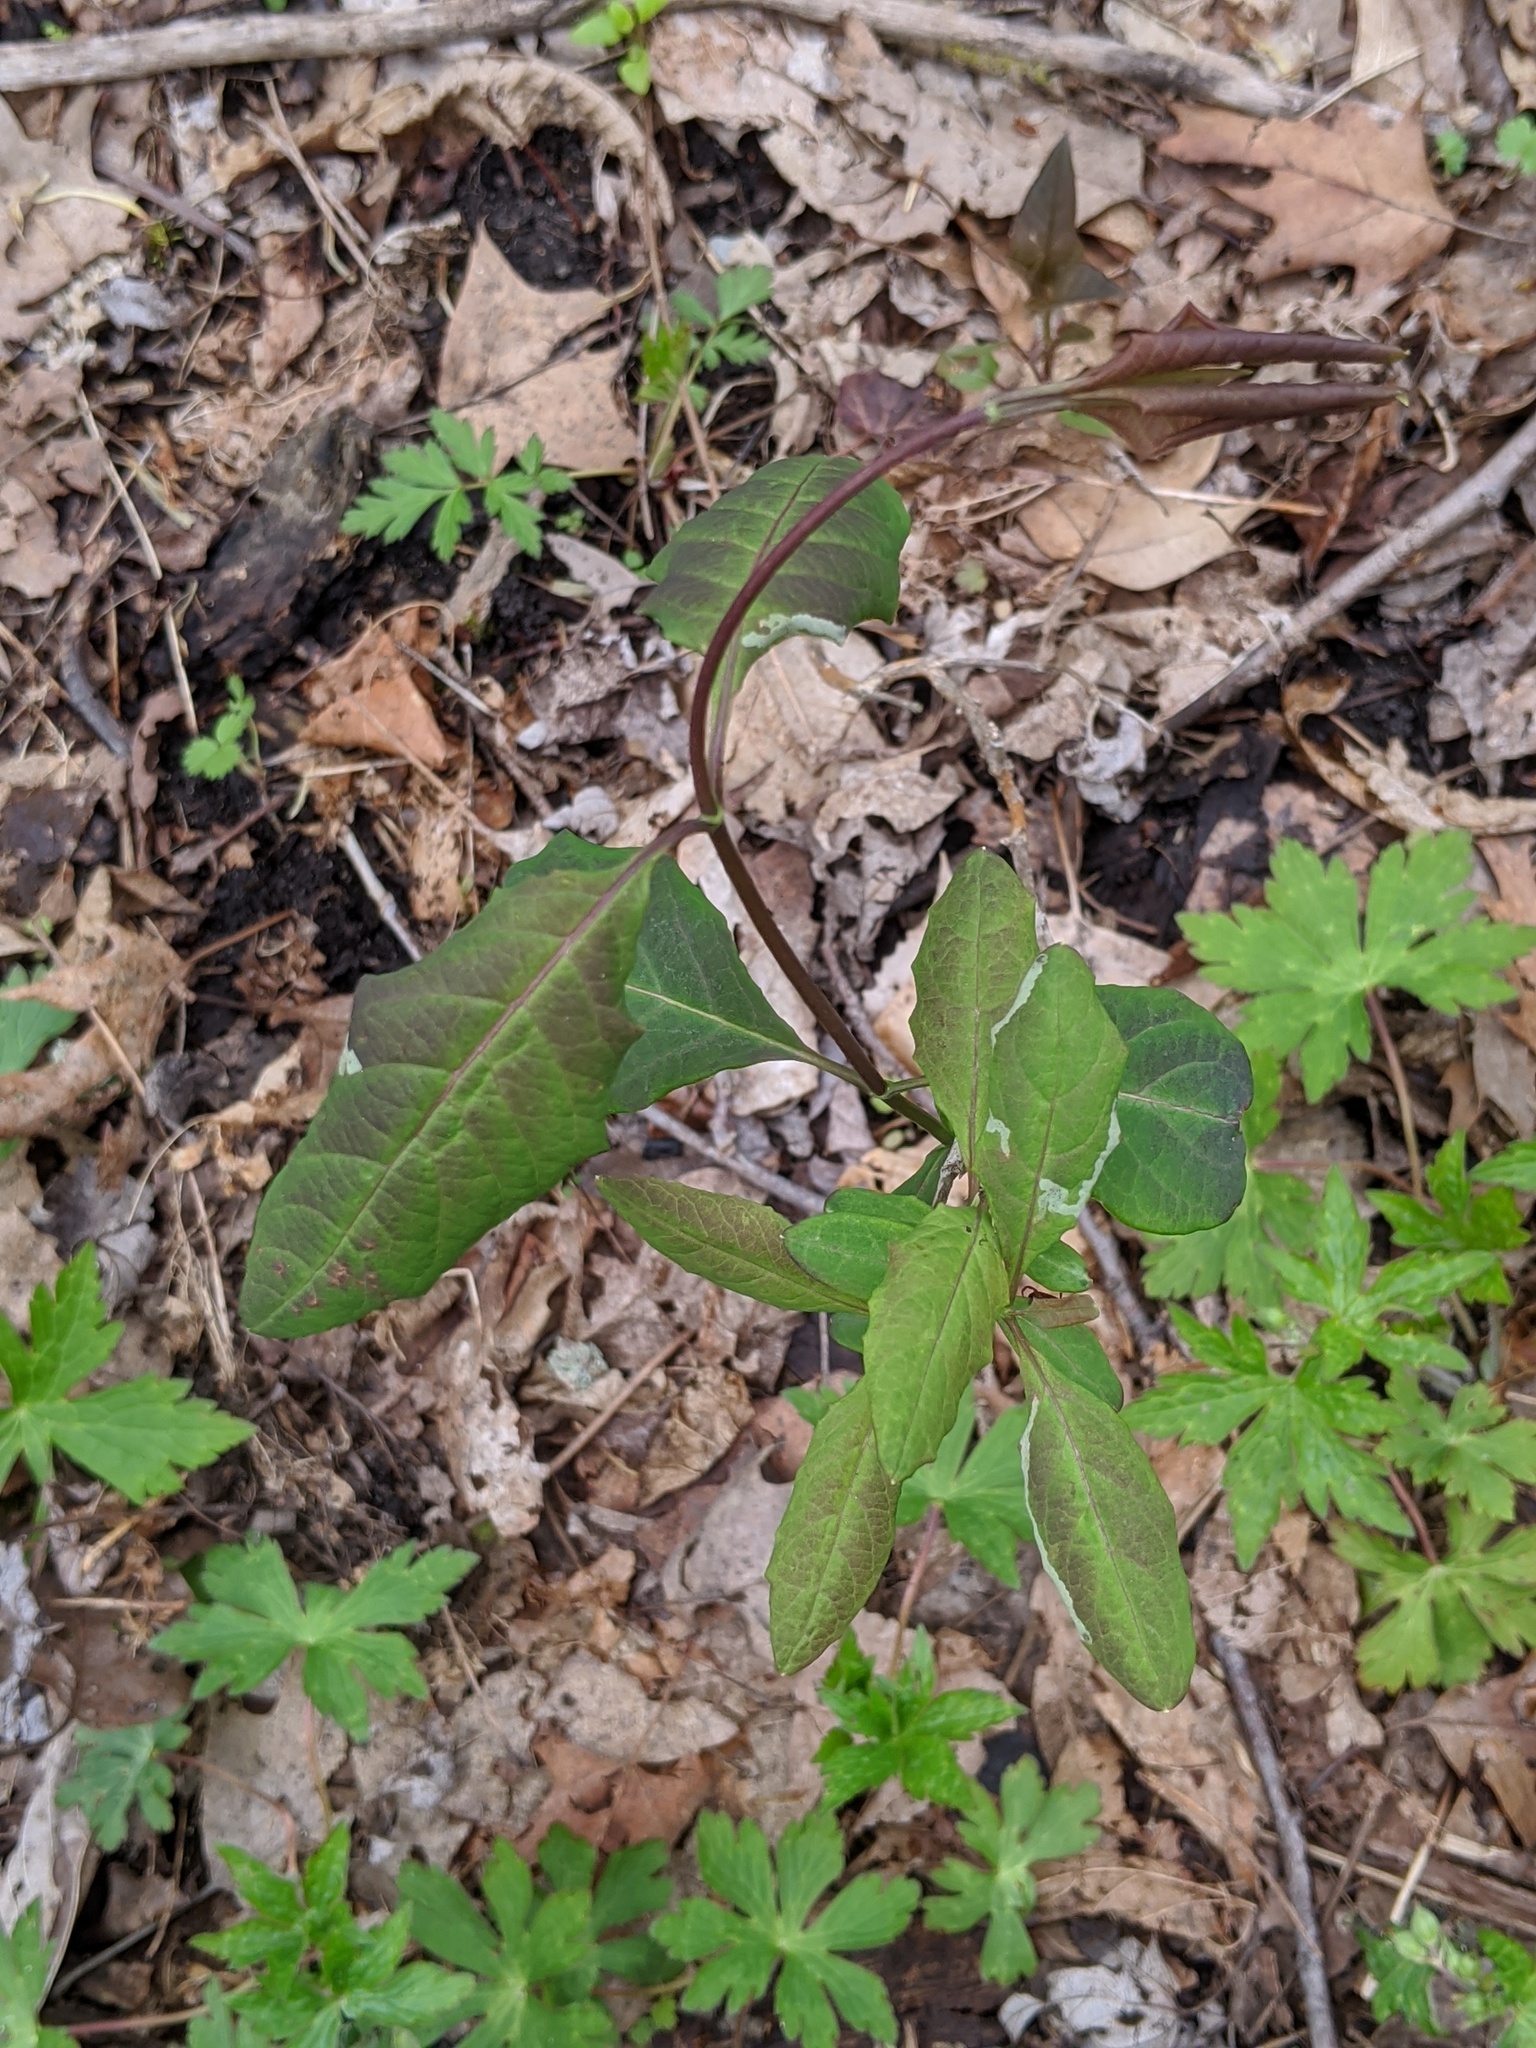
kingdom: Plantae
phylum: Tracheophyta
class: Magnoliopsida
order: Dipsacales
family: Caprifoliaceae
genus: Lonicera
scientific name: Lonicera dioica
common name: Limber honeysuckle
